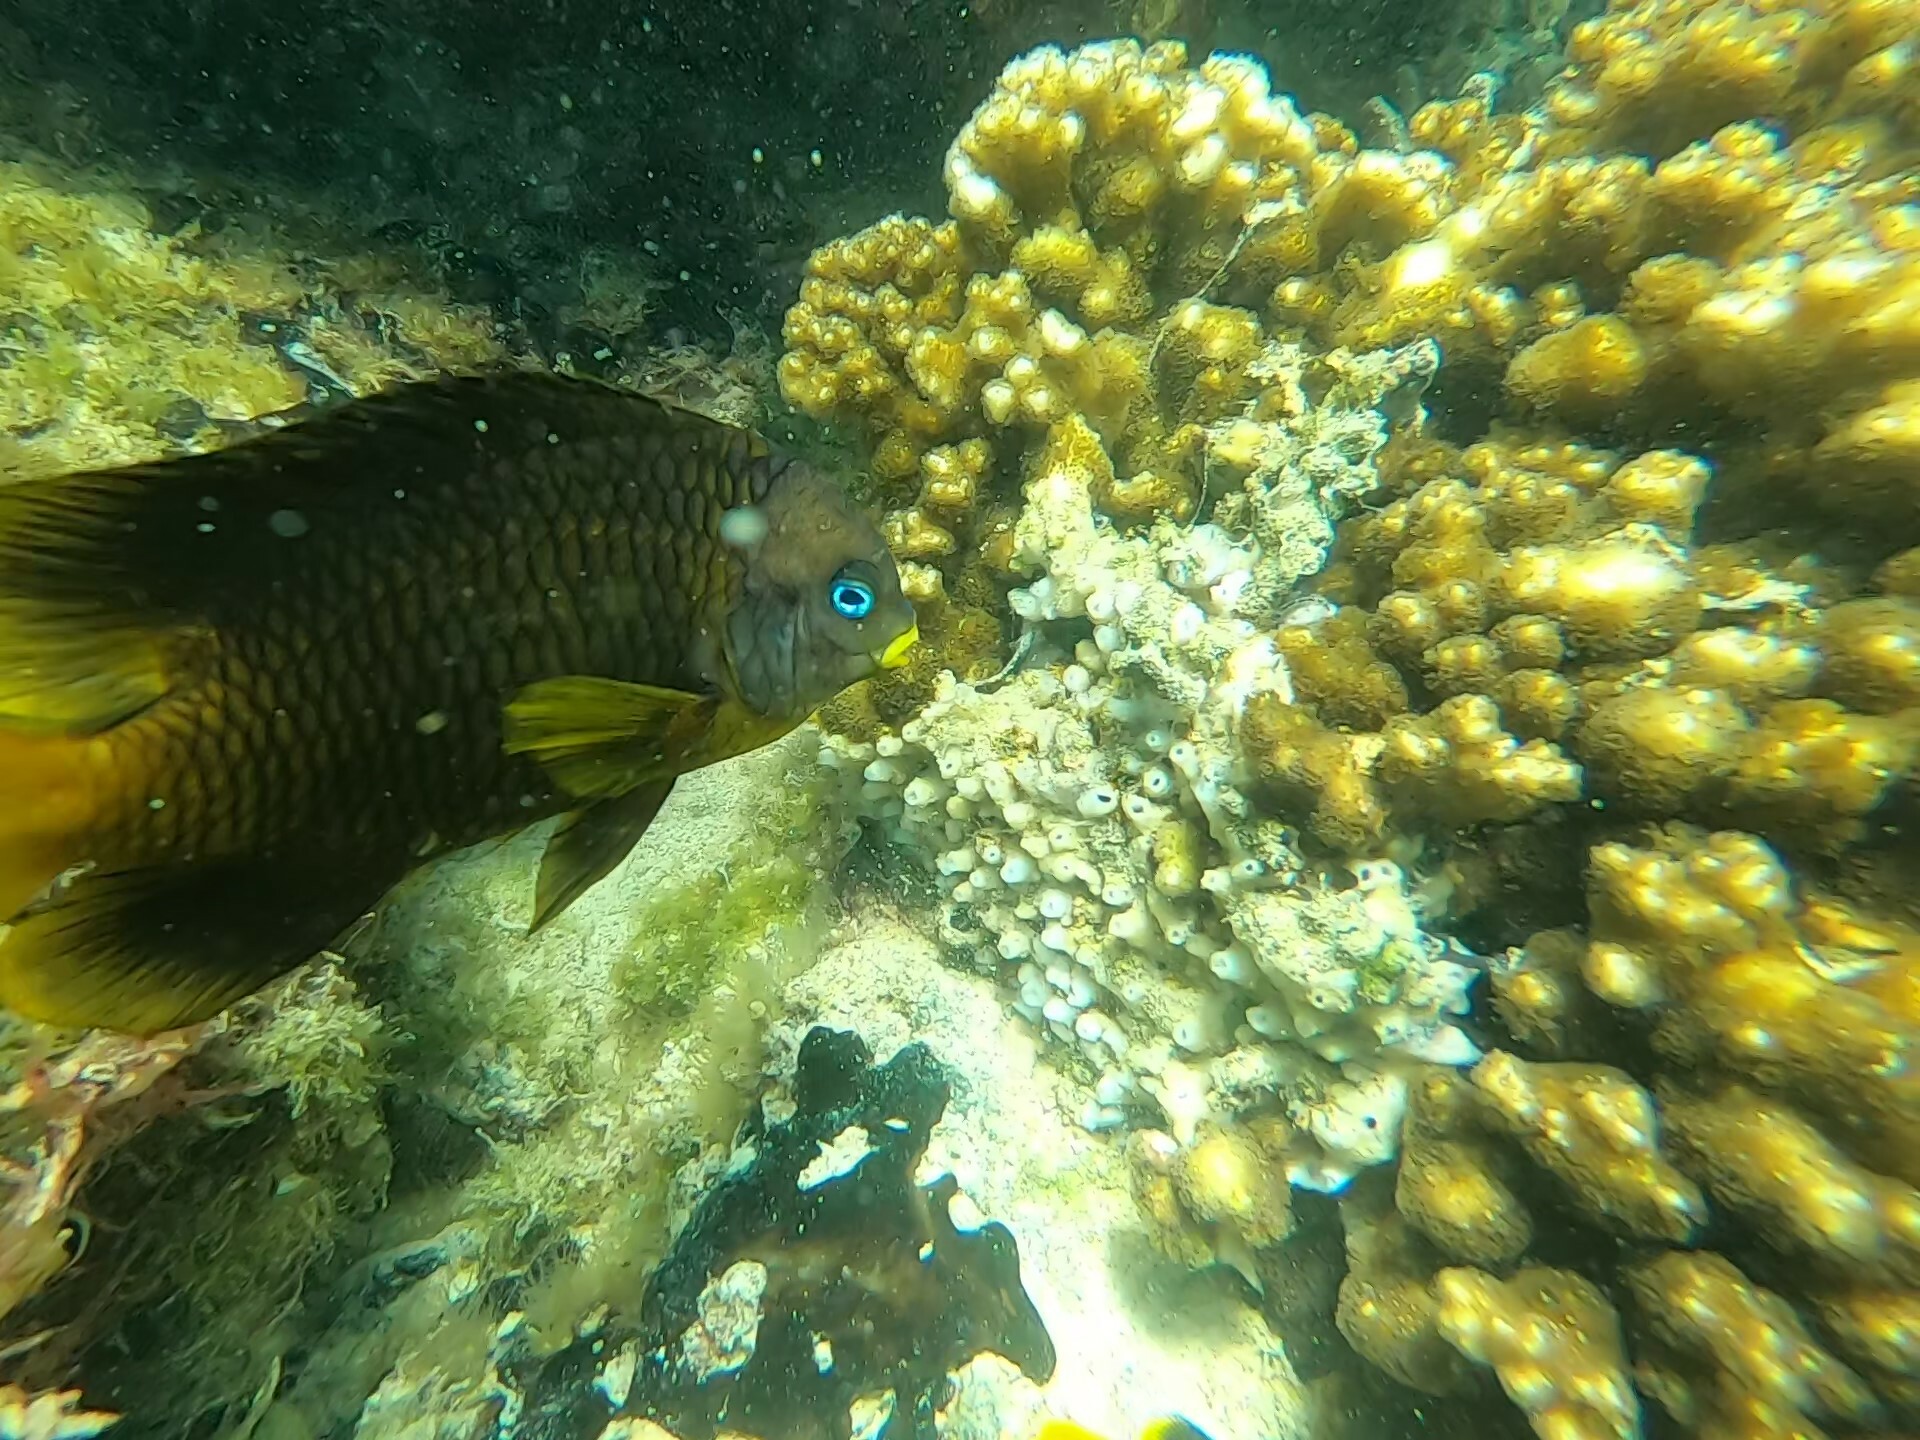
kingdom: Animalia
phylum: Chordata
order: Perciformes
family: Pomacentridae
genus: Stegastes
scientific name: Stegastes arcifrons
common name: Galapagos gregory
